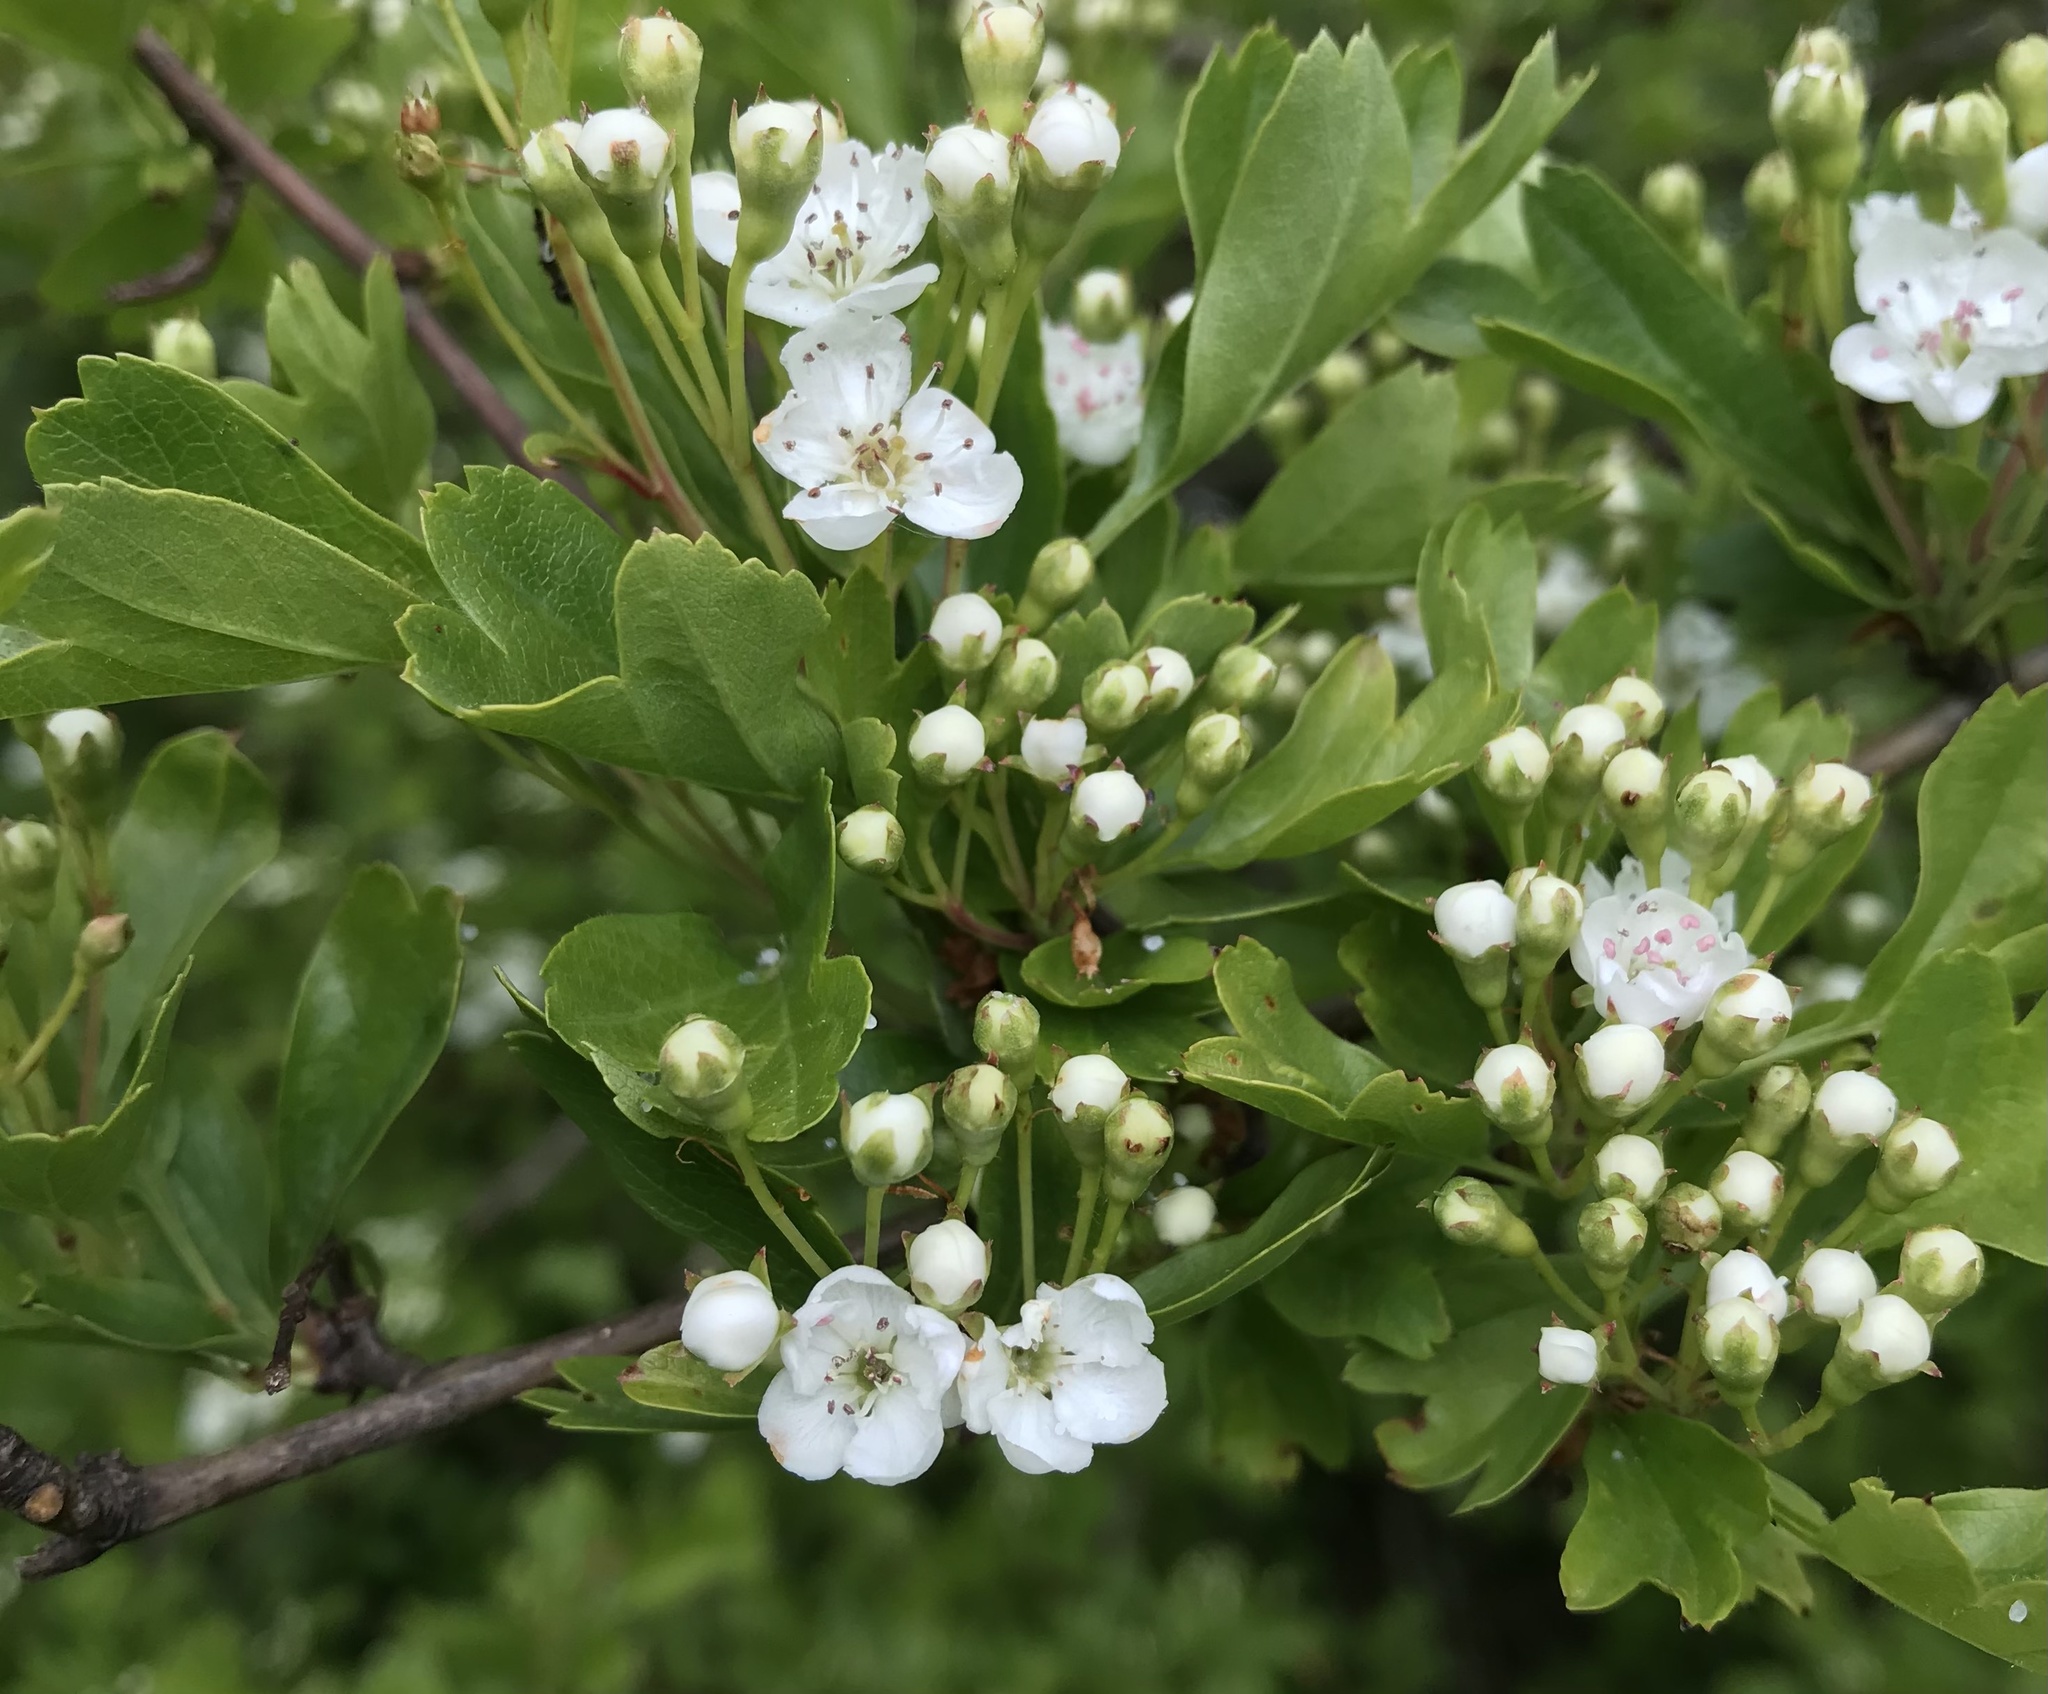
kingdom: Plantae
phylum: Tracheophyta
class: Magnoliopsida
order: Rosales
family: Rosaceae
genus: Crataegus
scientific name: Crataegus monogyna
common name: Hawthorn
